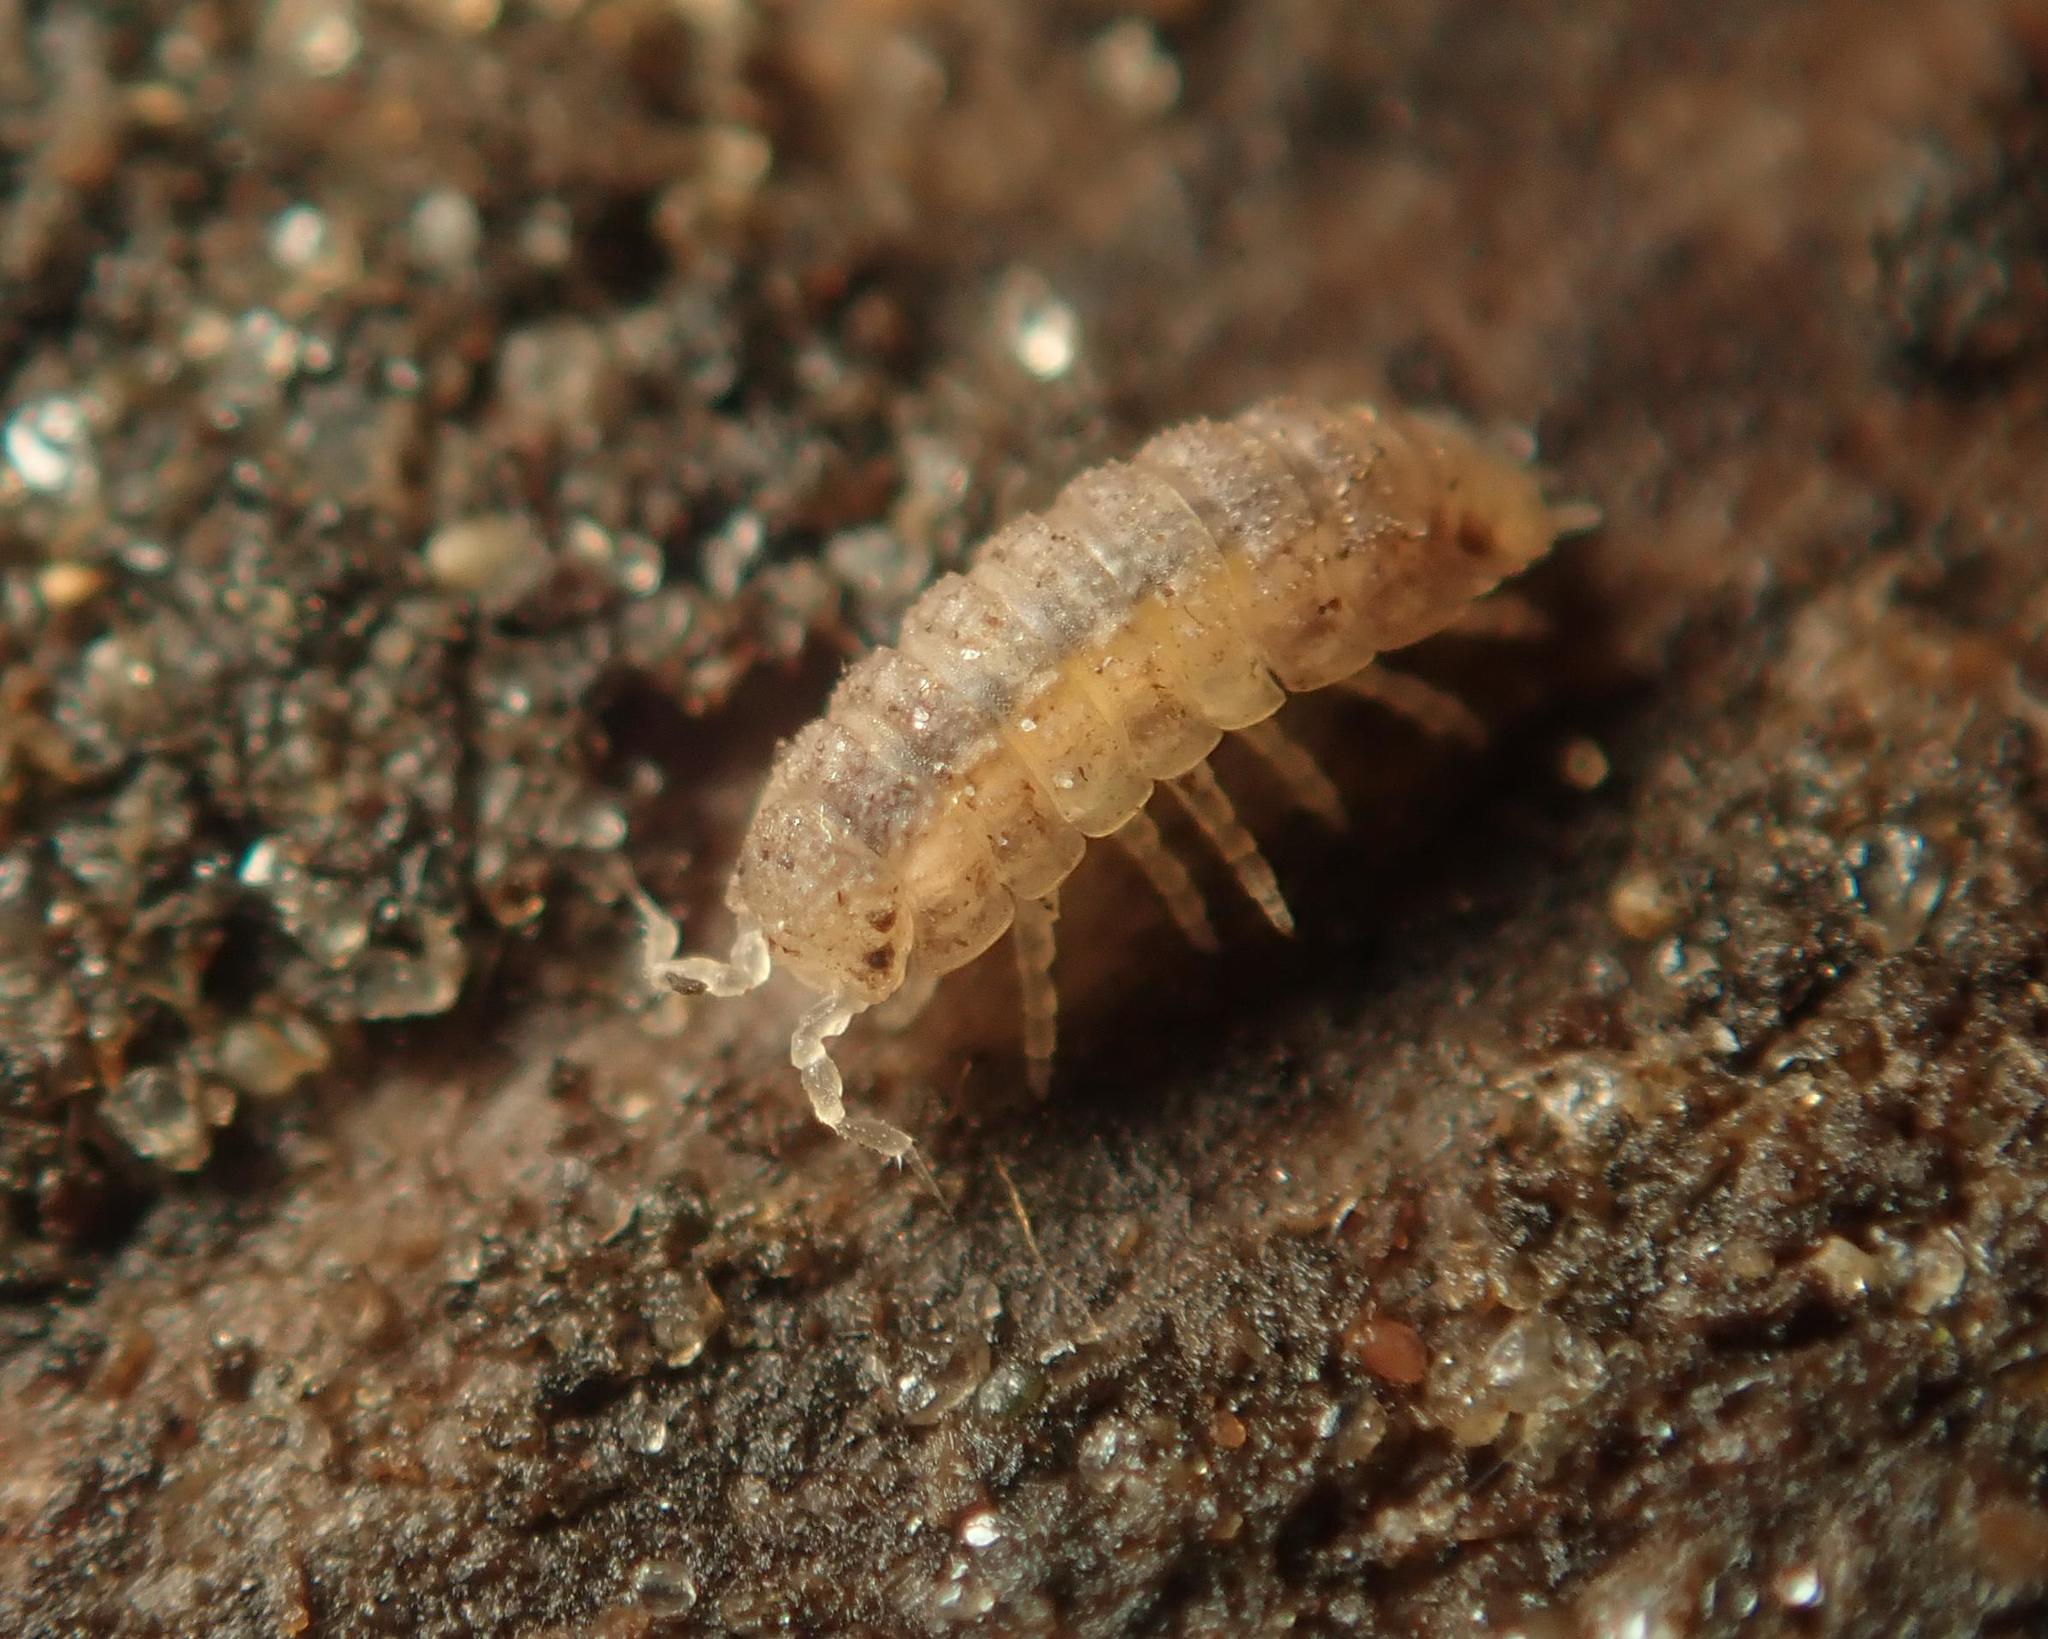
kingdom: Animalia
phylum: Arthropoda
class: Malacostraca
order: Isopoda
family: Trichoniscidae
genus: Haplophthalmus
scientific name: Haplophthalmus danicus
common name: Pillbug
